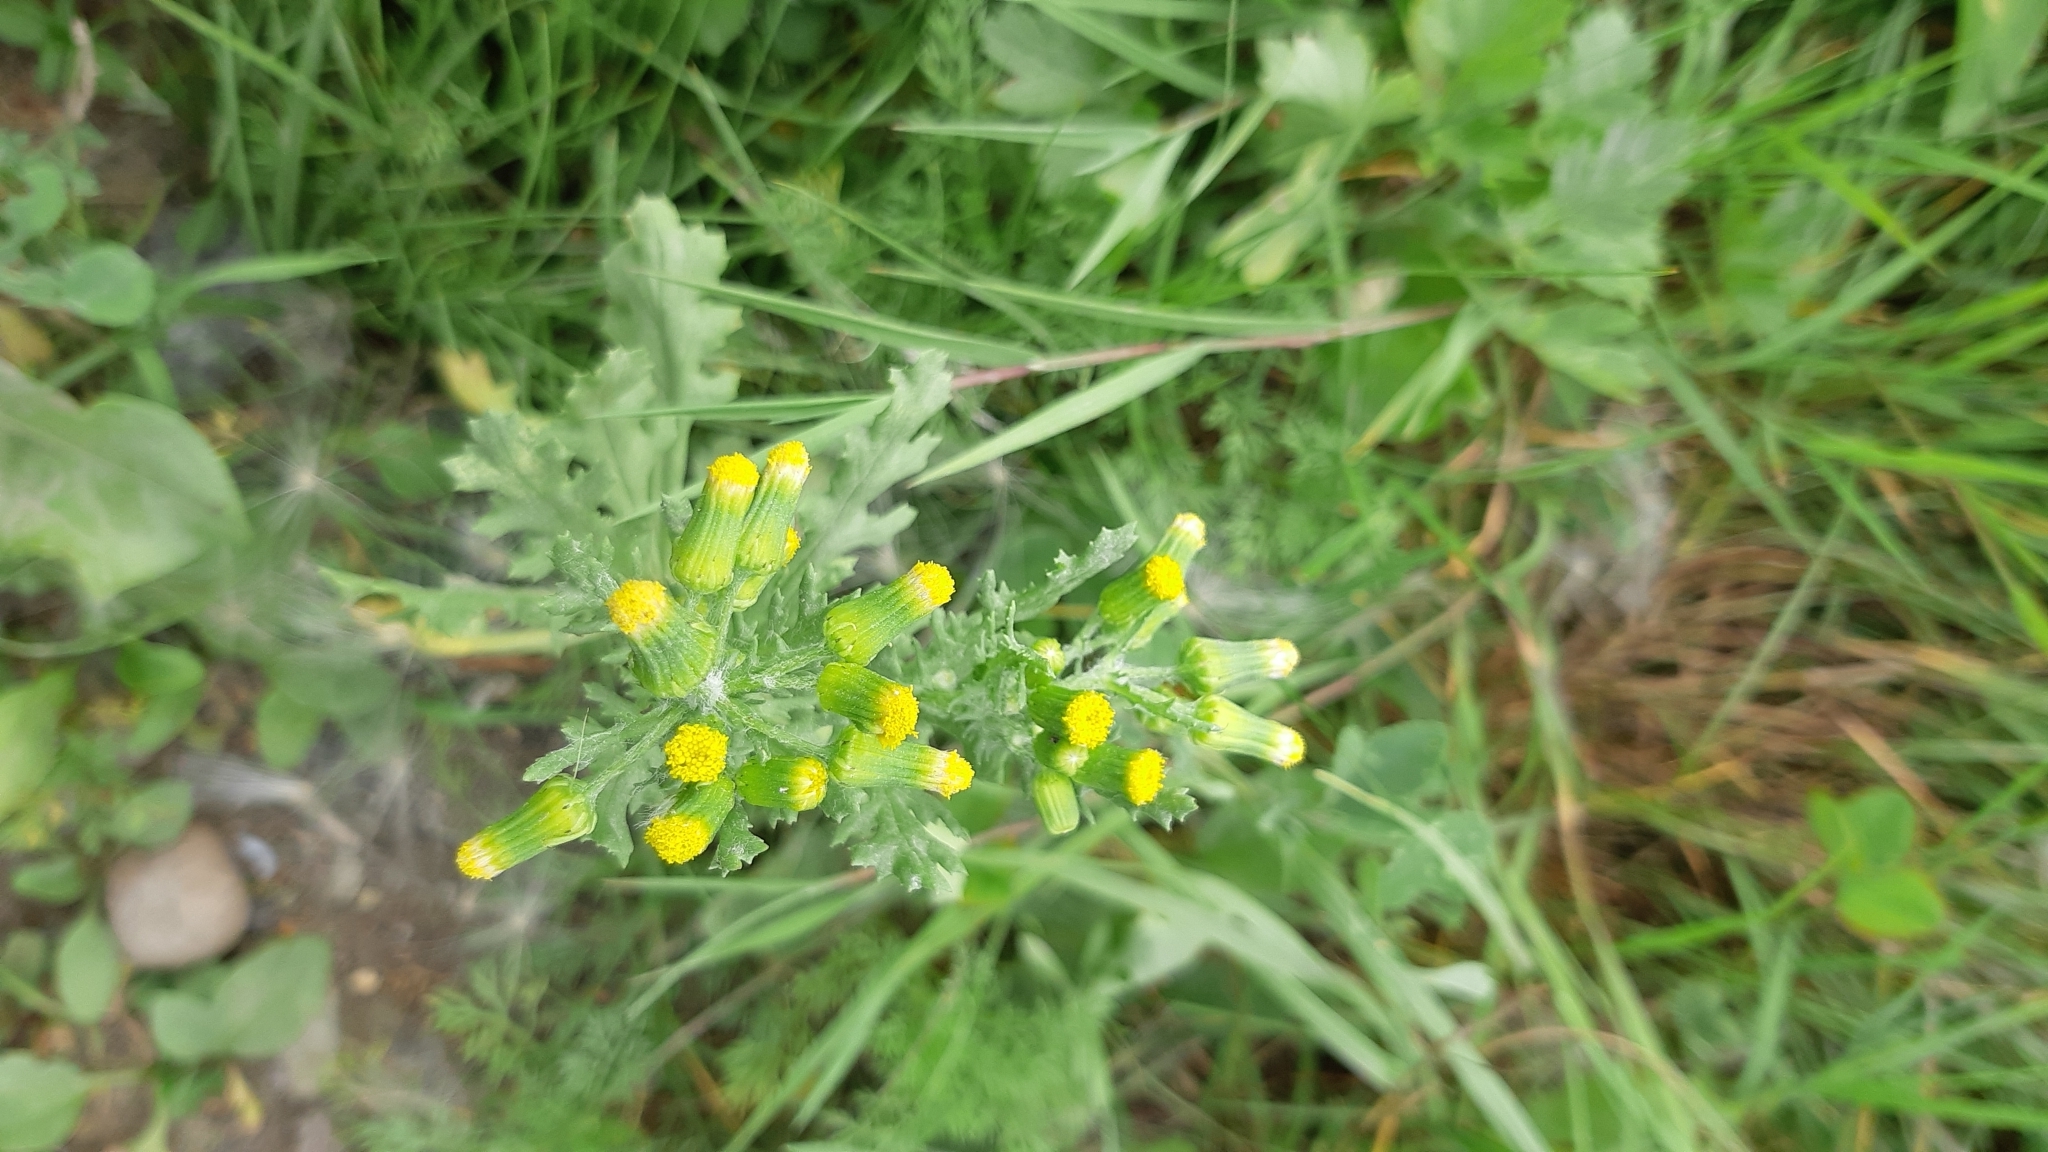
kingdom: Plantae
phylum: Tracheophyta
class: Magnoliopsida
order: Asterales
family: Asteraceae
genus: Senecio
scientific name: Senecio vulgaris
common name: Old-man-in-the-spring
